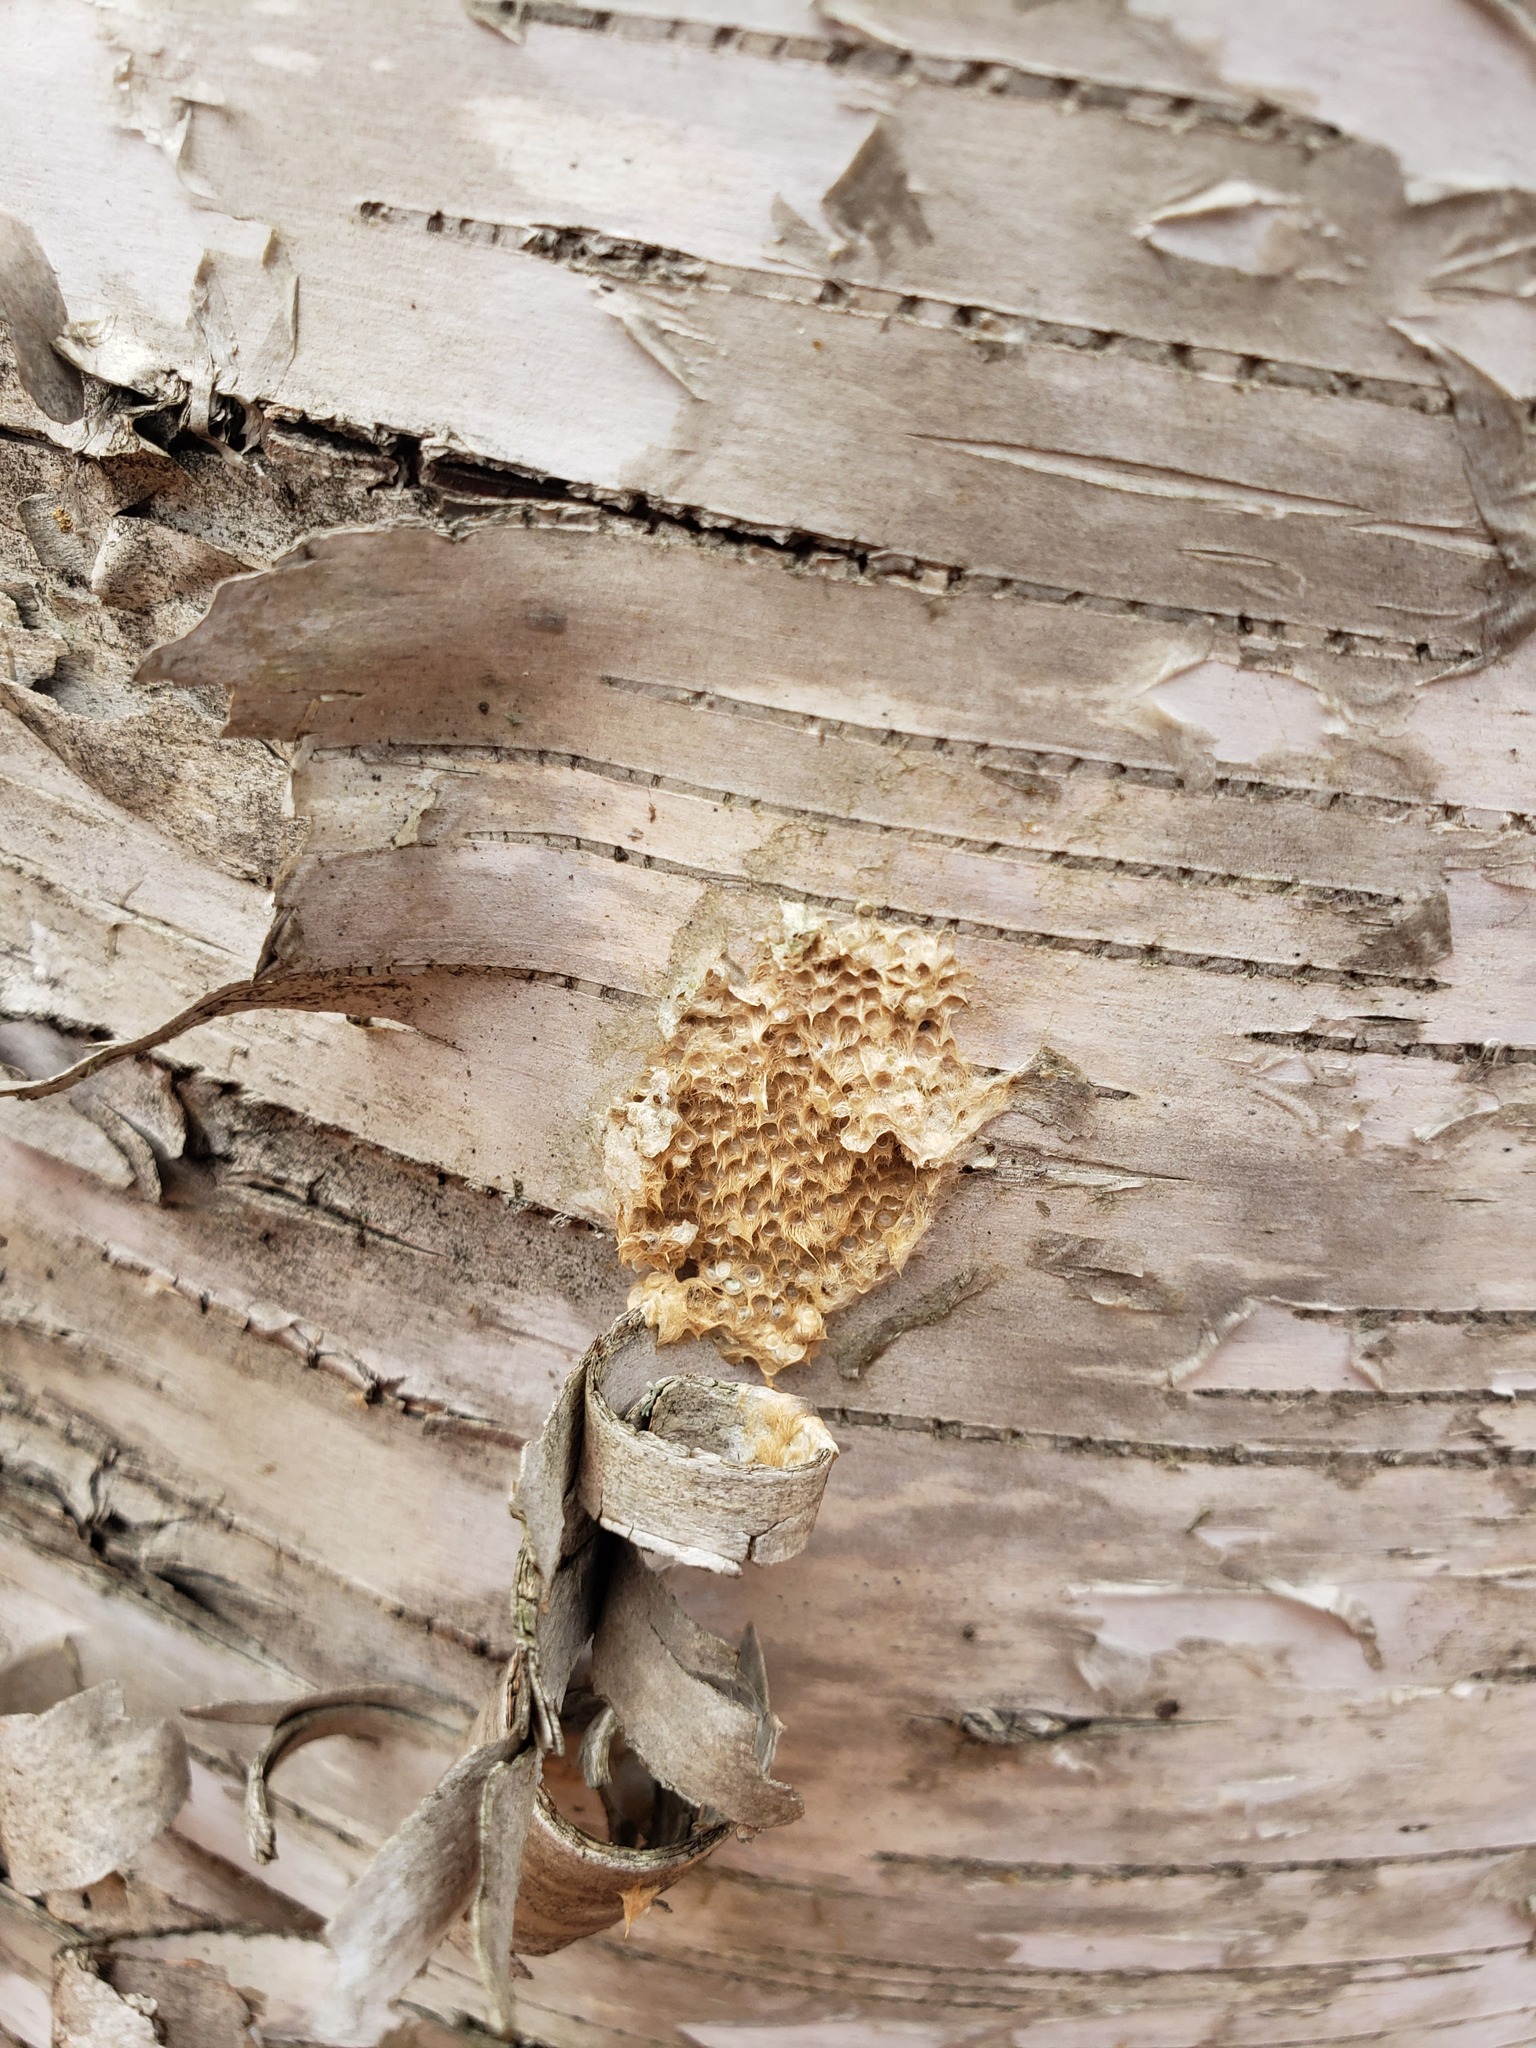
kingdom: Animalia
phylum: Arthropoda
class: Insecta
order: Lepidoptera
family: Erebidae
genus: Lymantria
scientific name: Lymantria dispar
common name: Gypsy moth
